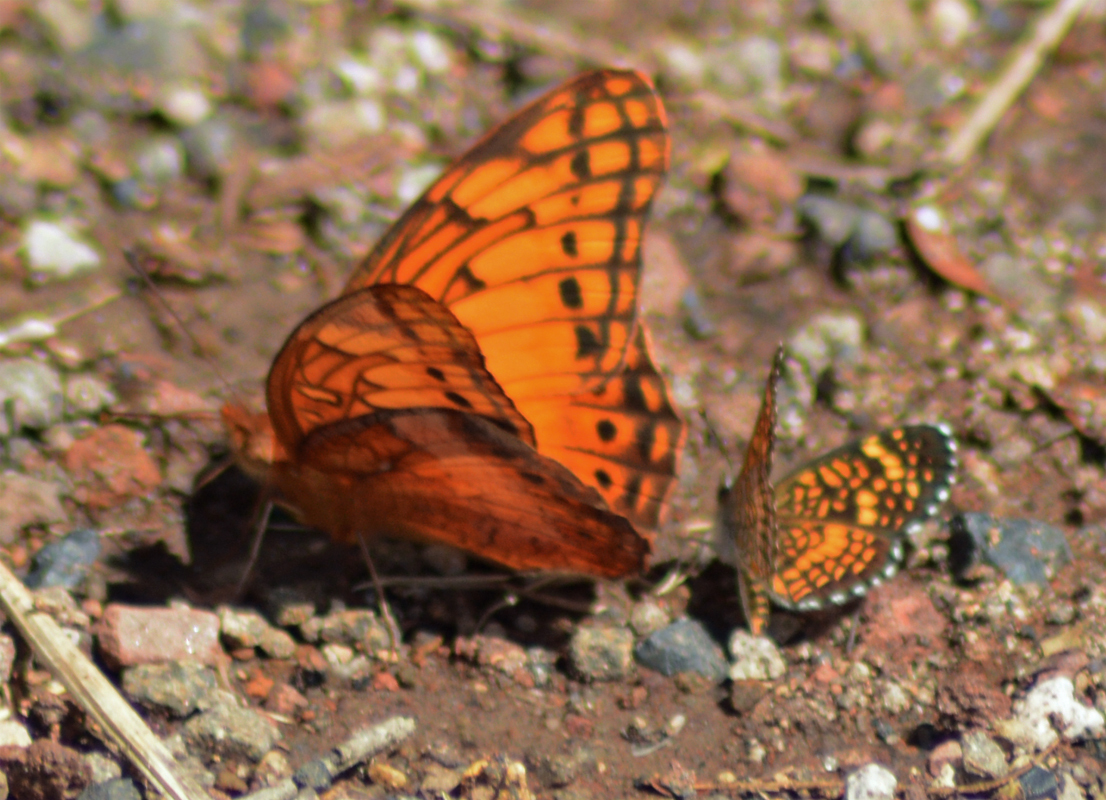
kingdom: Animalia
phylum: Arthropoda
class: Insecta
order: Lepidoptera
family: Nymphalidae
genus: Euptoieta
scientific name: Euptoieta hegesia
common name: Mexican fritillary
